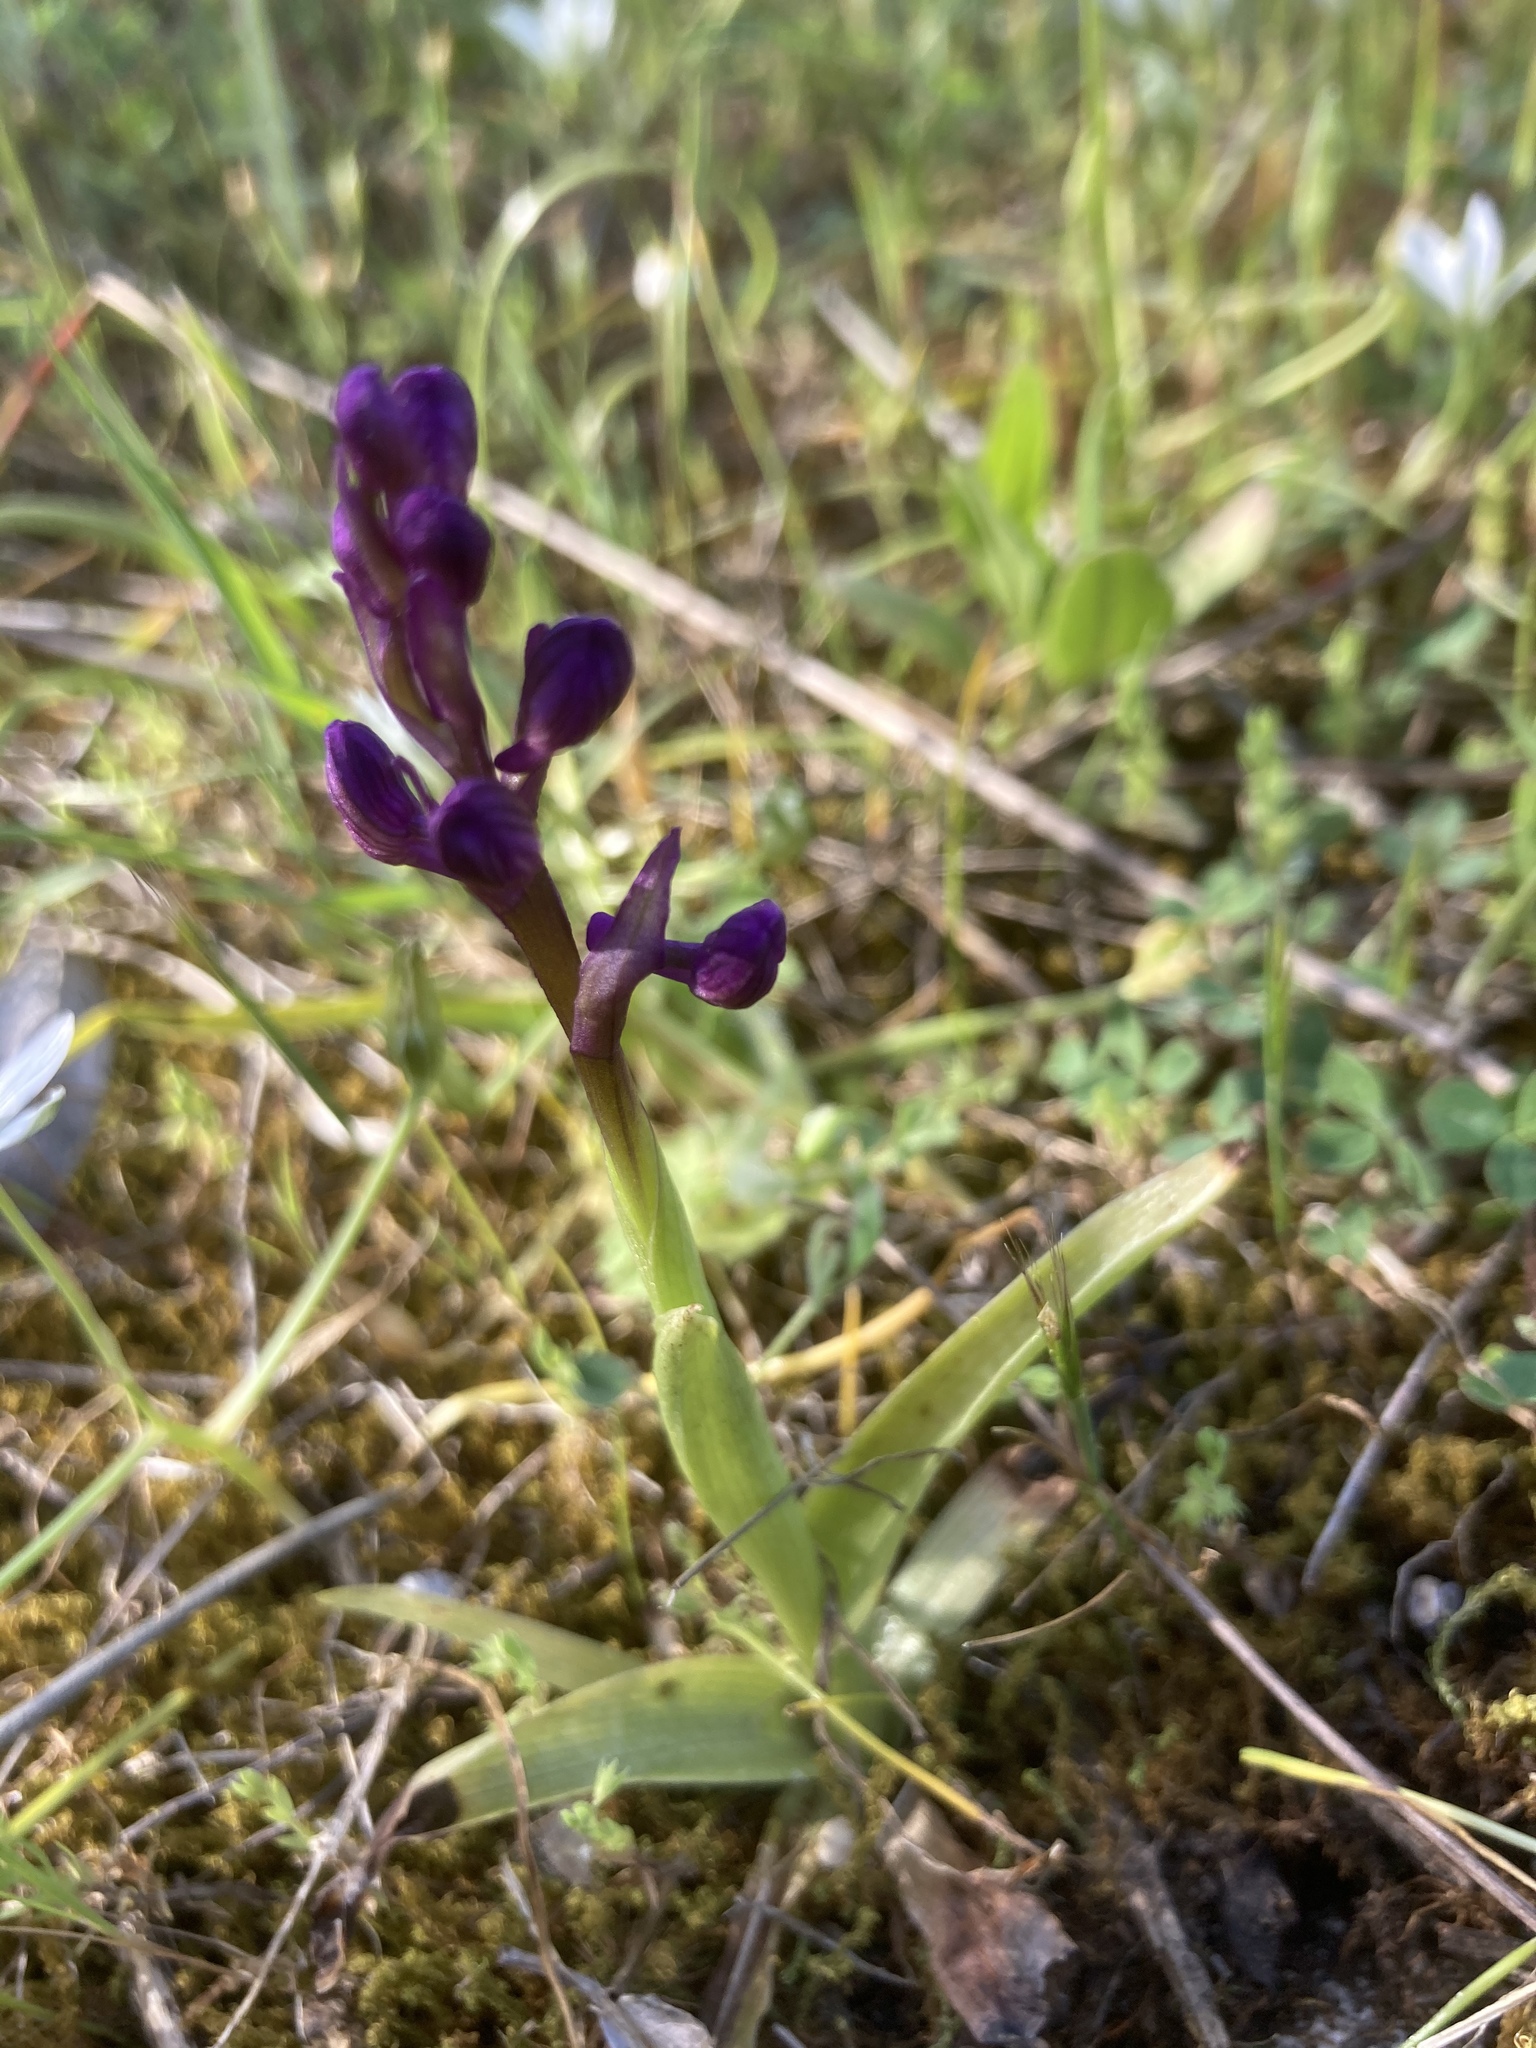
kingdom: Plantae
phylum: Tracheophyta
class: Liliopsida
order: Asparagales
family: Orchidaceae
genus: Anacamptis
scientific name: Anacamptis morio
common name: Green-winged orchid
